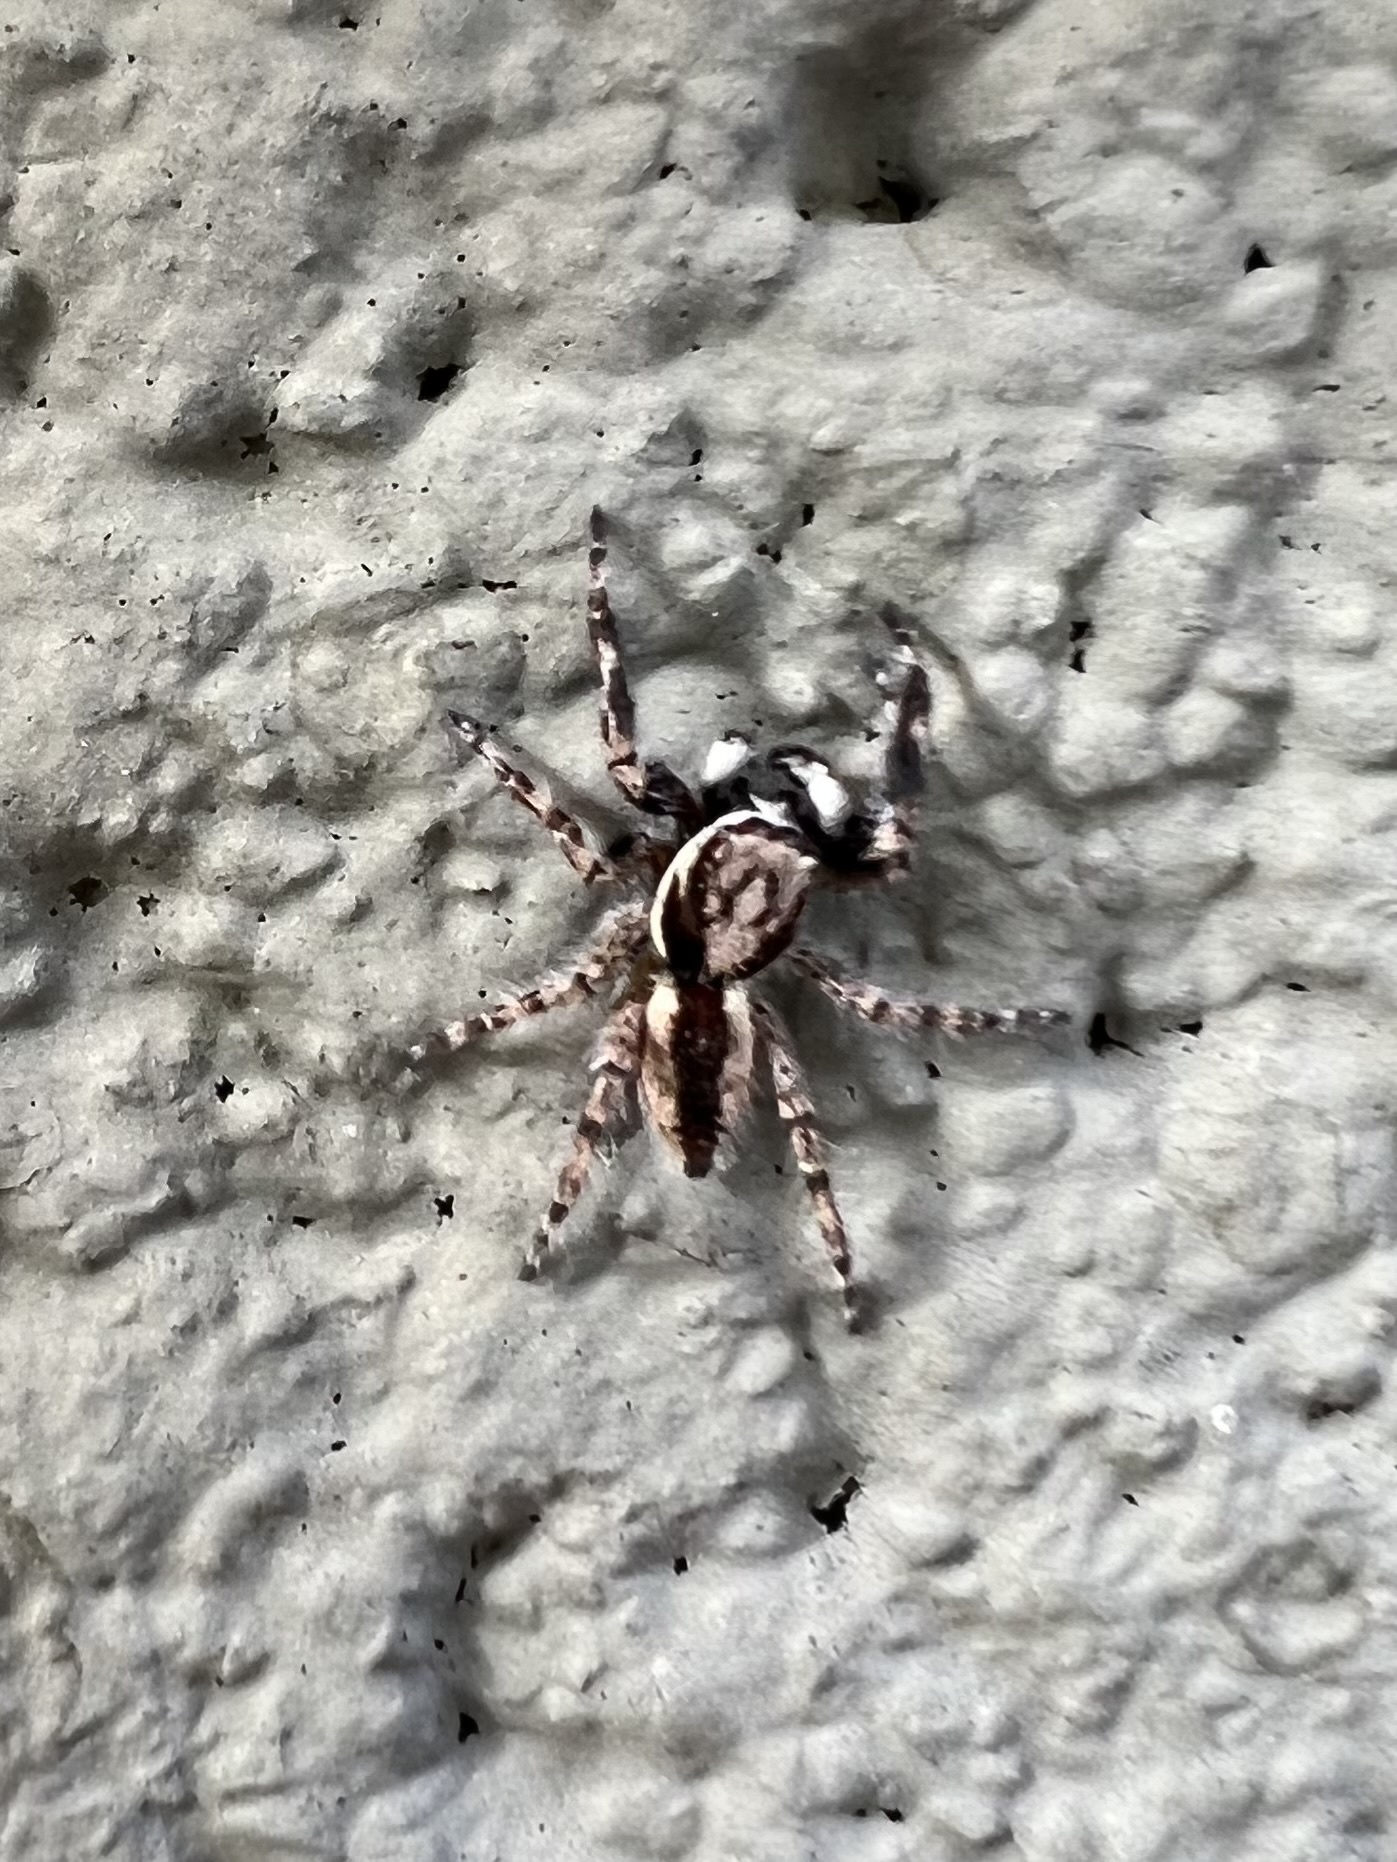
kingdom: Animalia
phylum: Arthropoda
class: Arachnida
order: Araneae
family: Salticidae
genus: Menemerus
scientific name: Menemerus bivittatus
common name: Gray wall jumper
